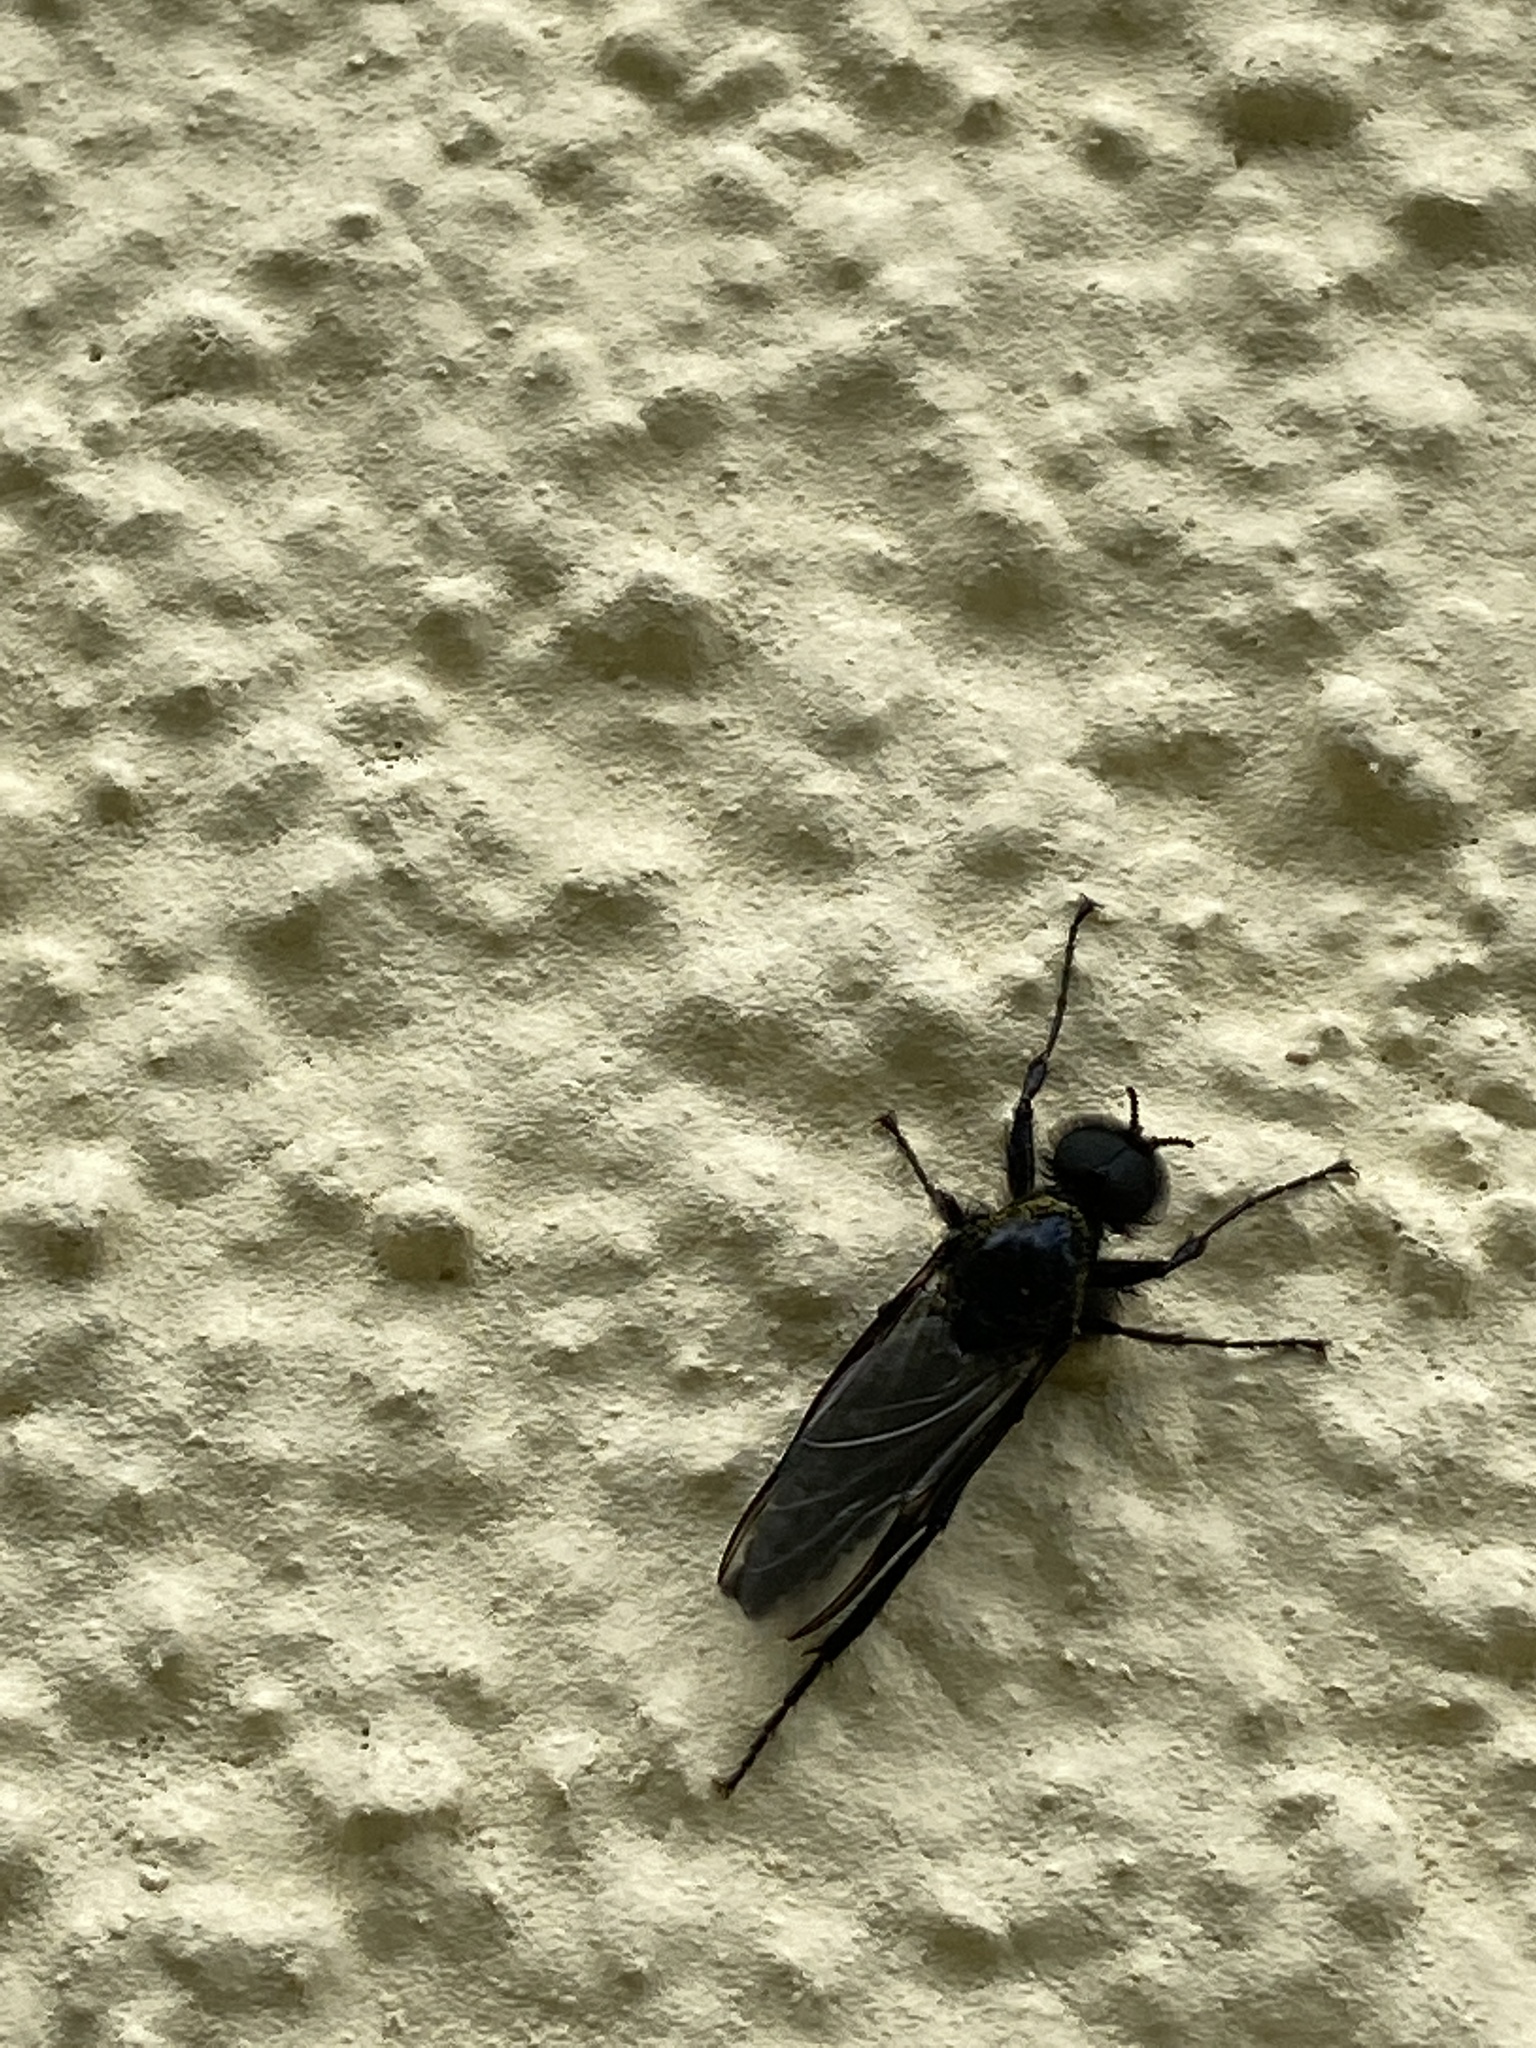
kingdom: Animalia
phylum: Arthropoda
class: Insecta
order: Diptera
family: Bibionidae
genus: Bibio
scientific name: Bibio marci
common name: St marks fly
